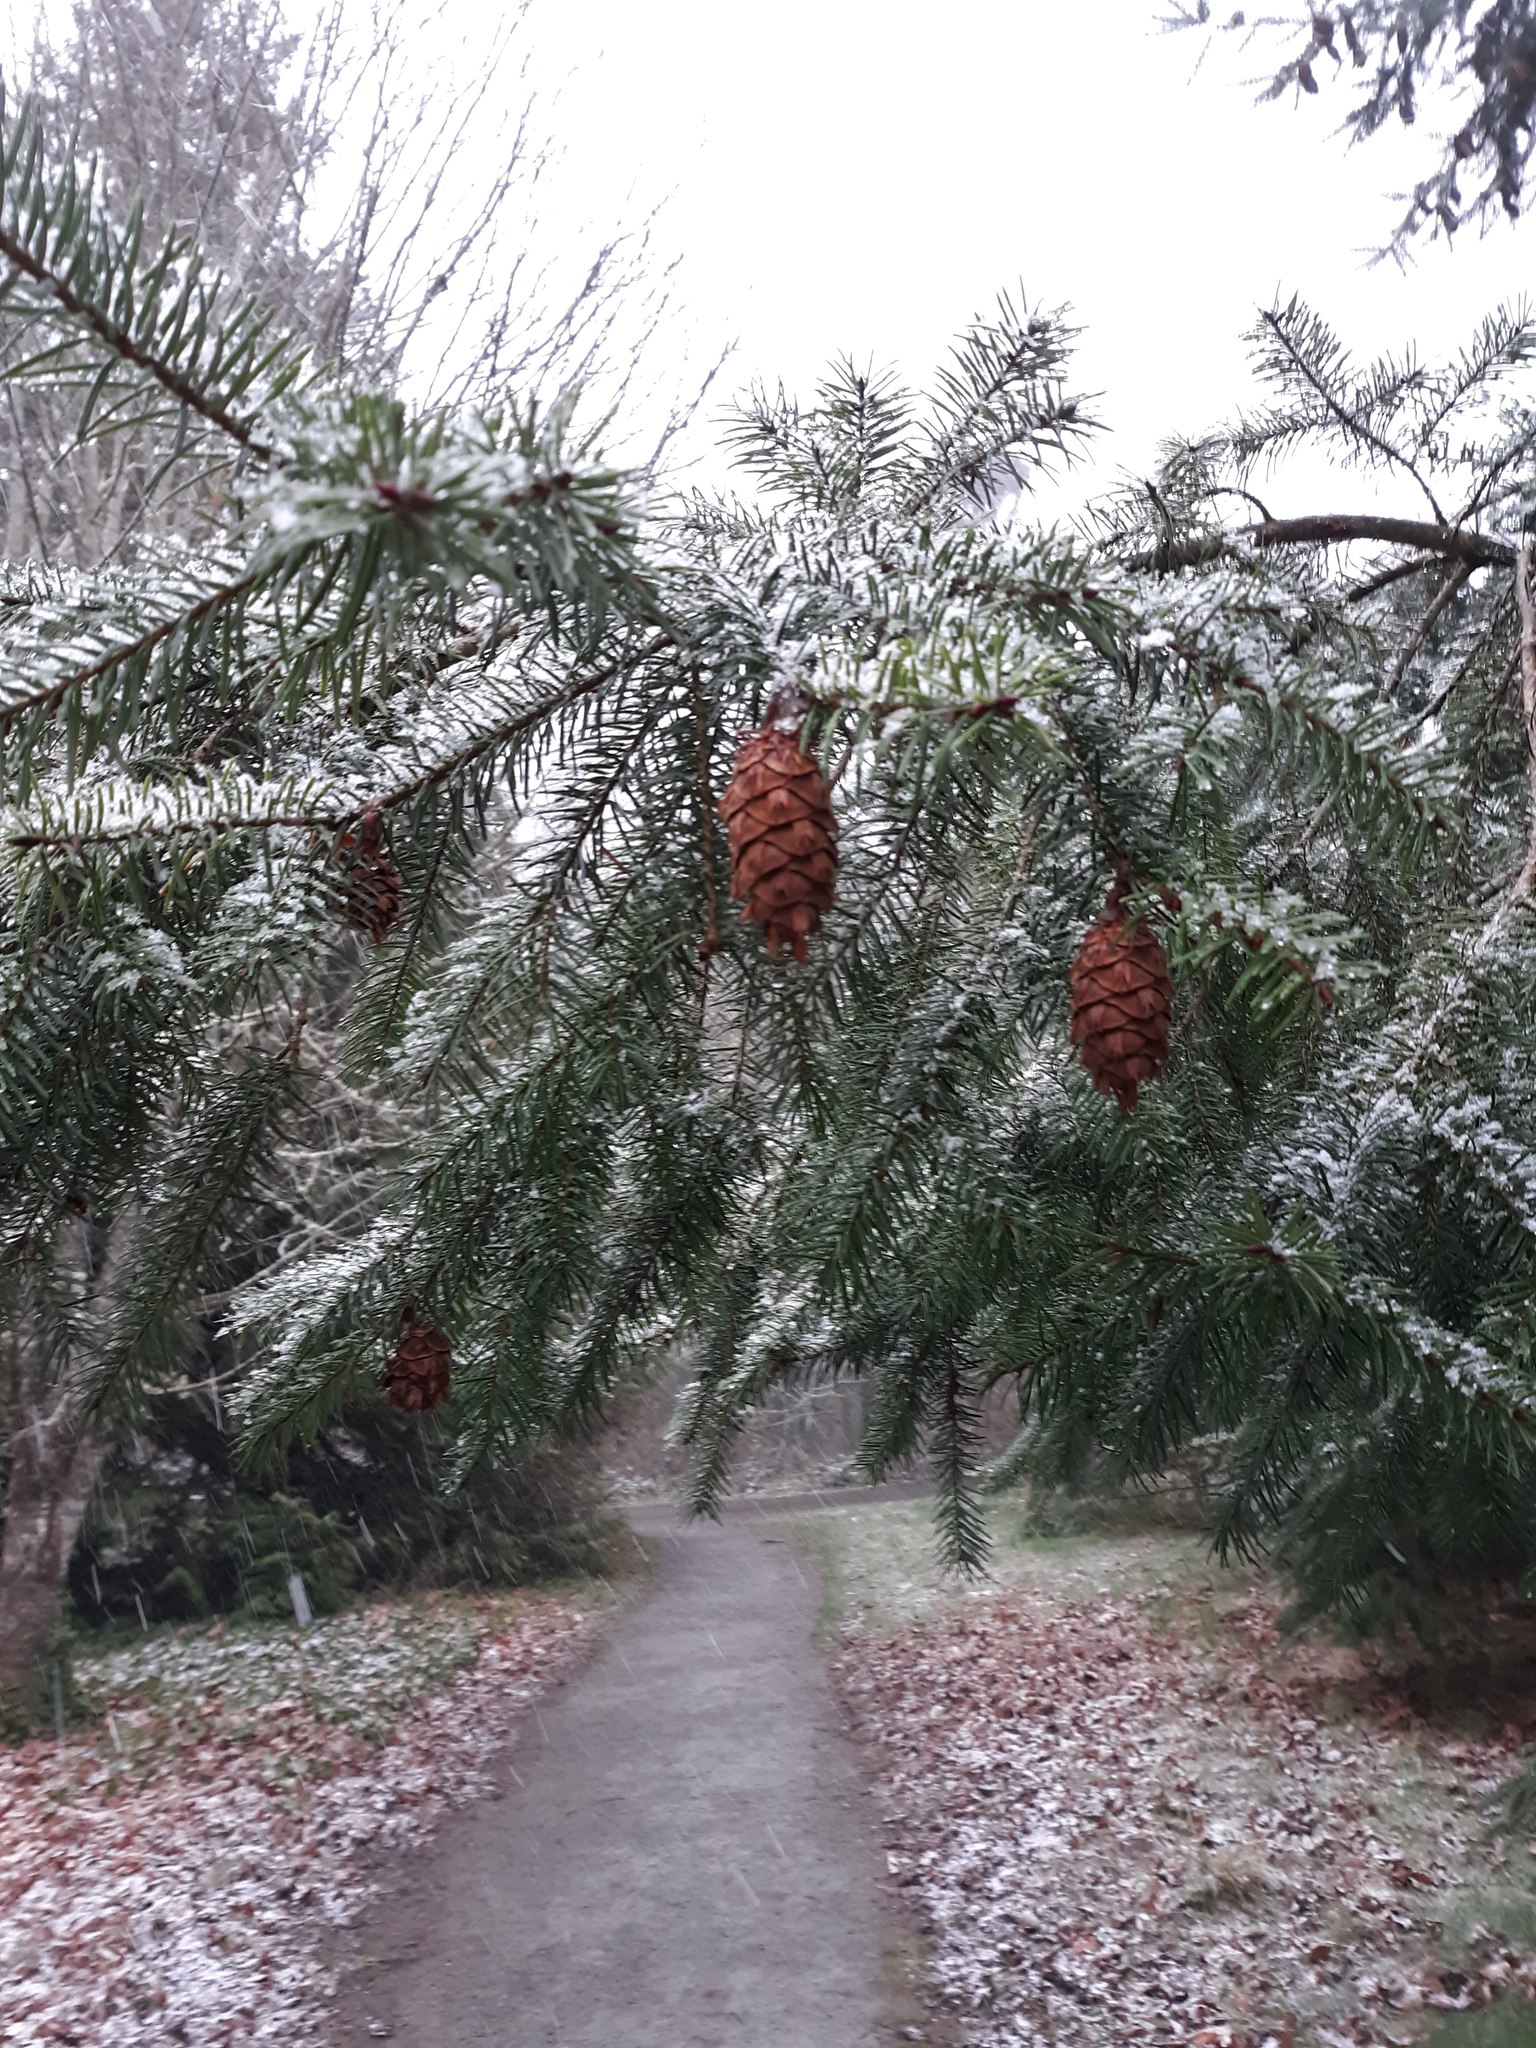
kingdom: Plantae
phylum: Tracheophyta
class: Pinopsida
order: Pinales
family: Pinaceae
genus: Pseudotsuga
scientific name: Pseudotsuga menziesii
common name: Douglas fir
